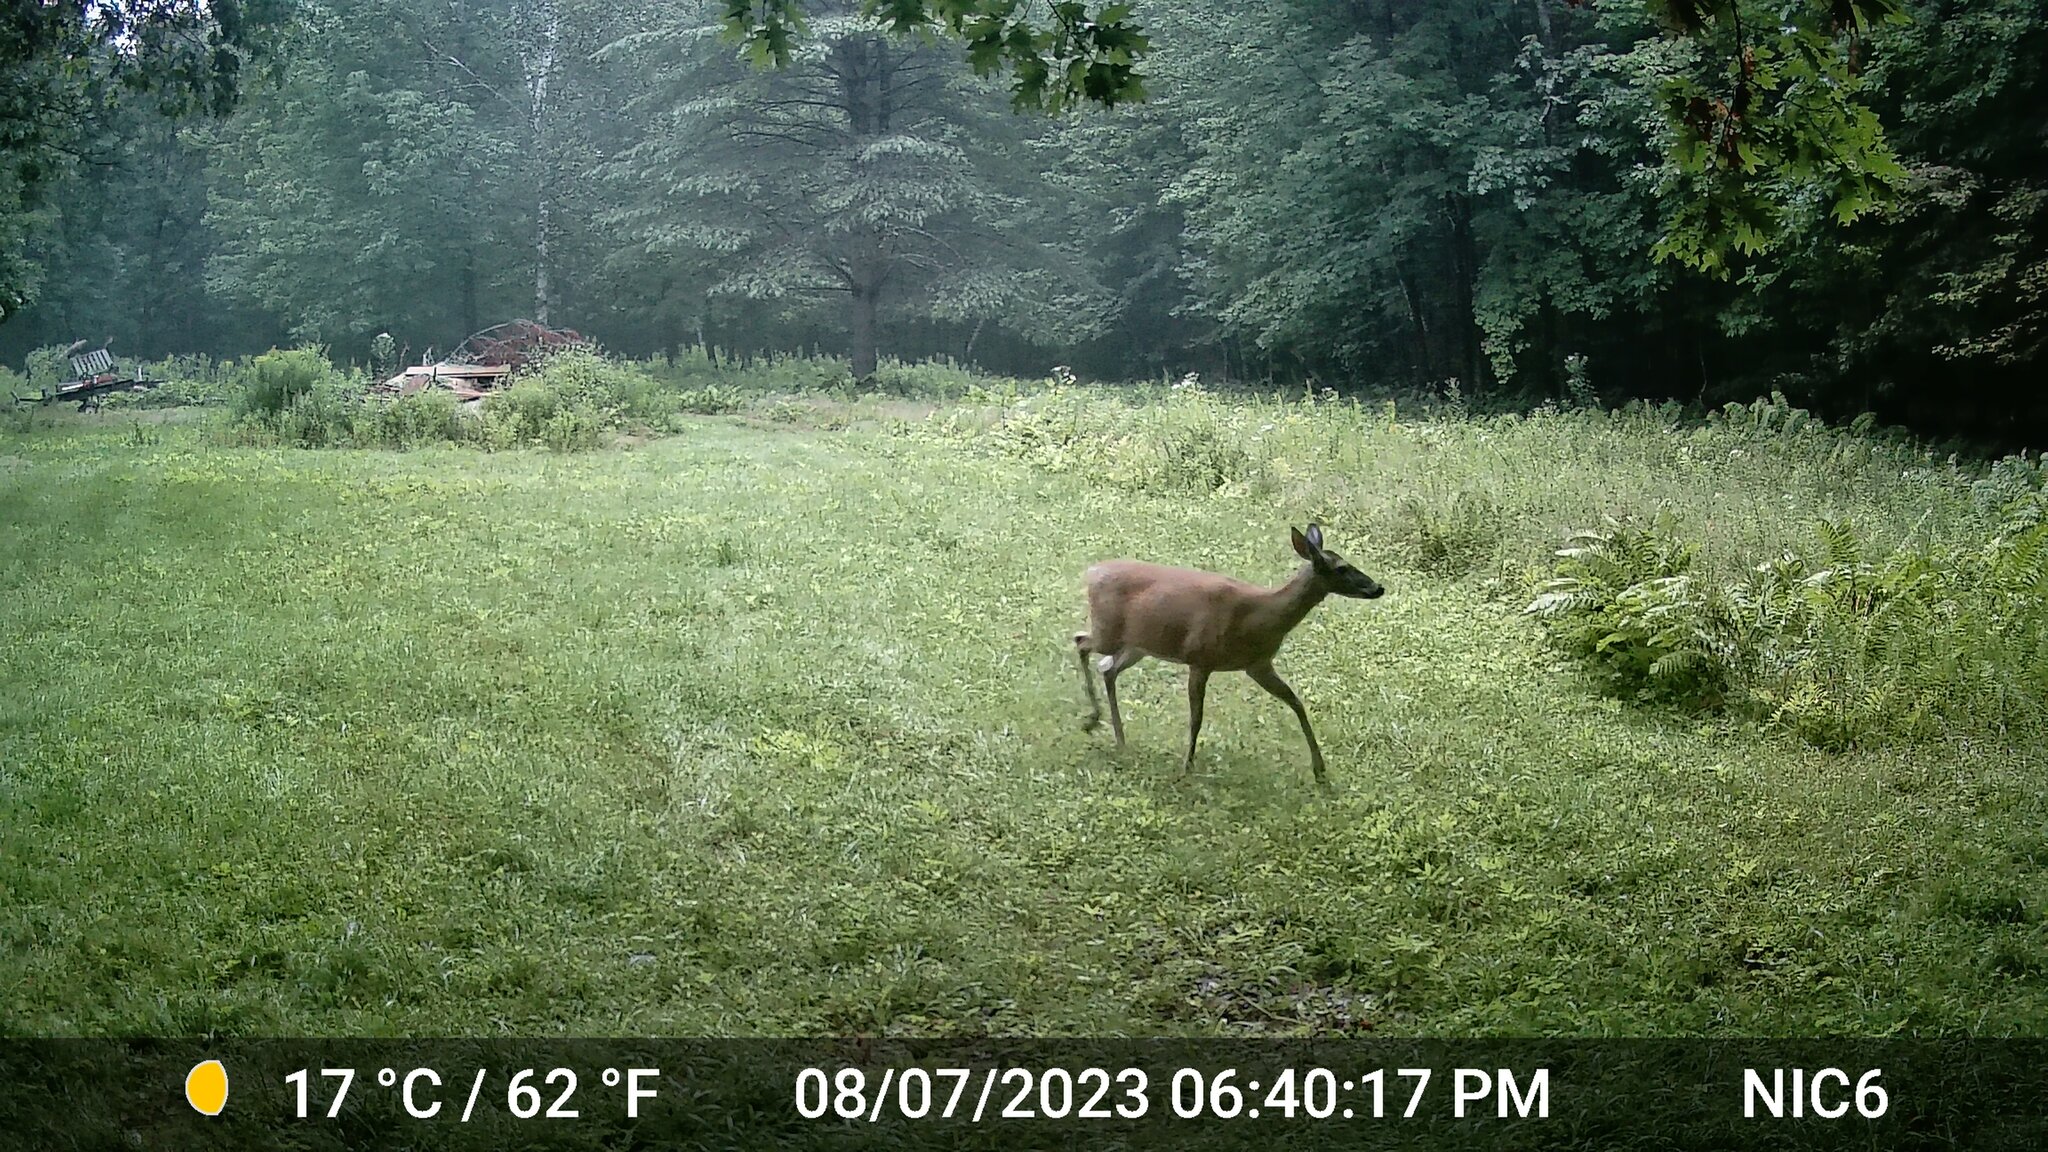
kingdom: Animalia
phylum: Chordata
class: Mammalia
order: Artiodactyla
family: Cervidae
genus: Odocoileus
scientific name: Odocoileus virginianus
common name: White-tailed deer
